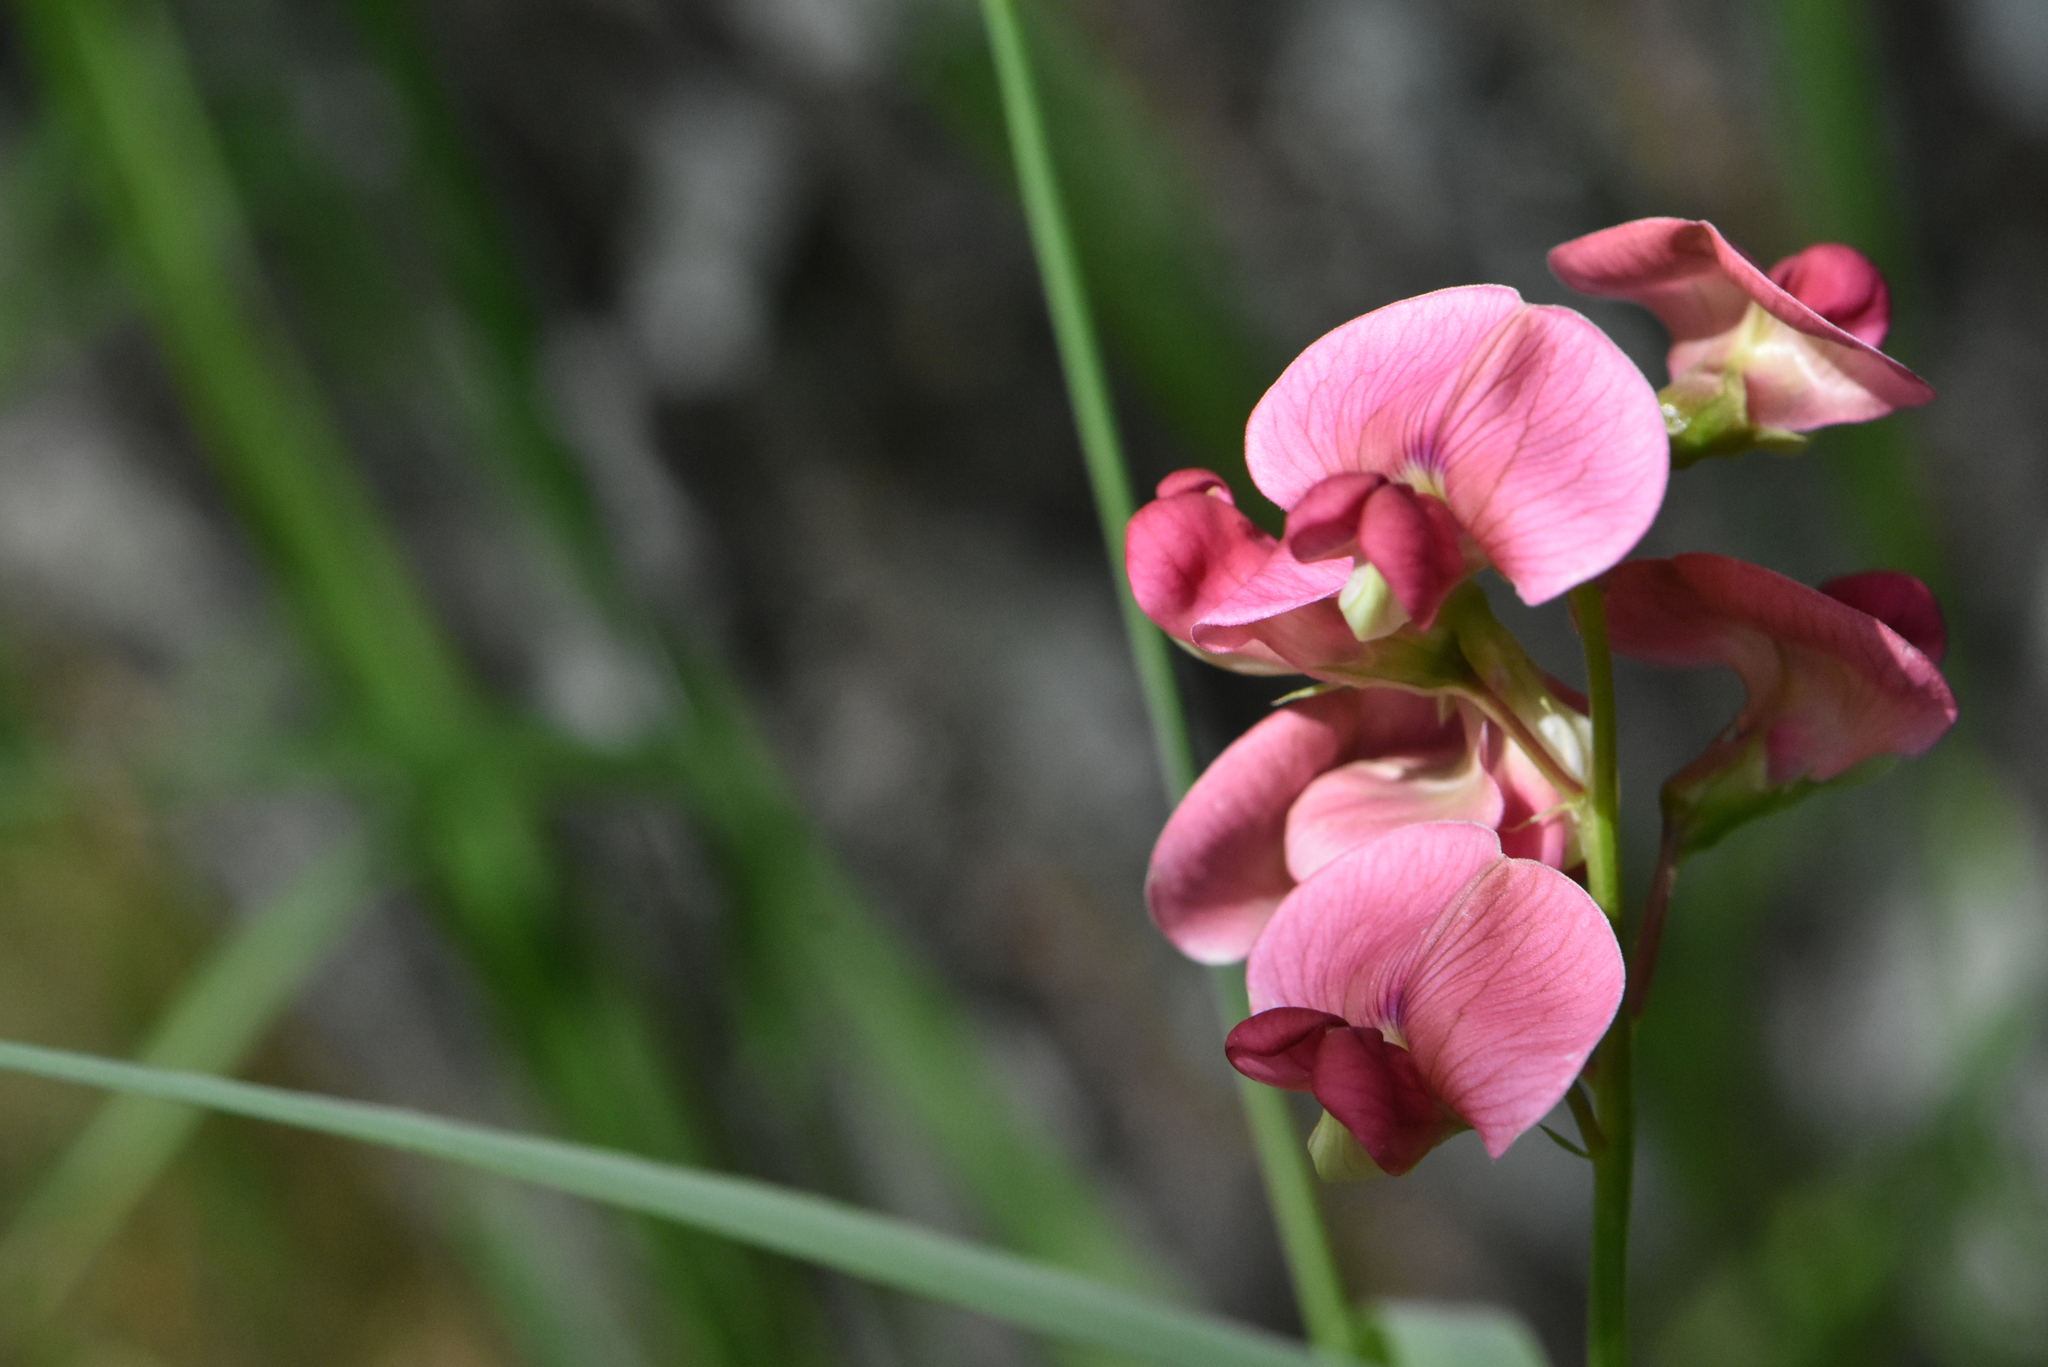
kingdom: Plantae
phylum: Tracheophyta
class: Magnoliopsida
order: Fabales
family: Fabaceae
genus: Lathyrus
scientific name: Lathyrus sylvestris
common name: Flat pea
